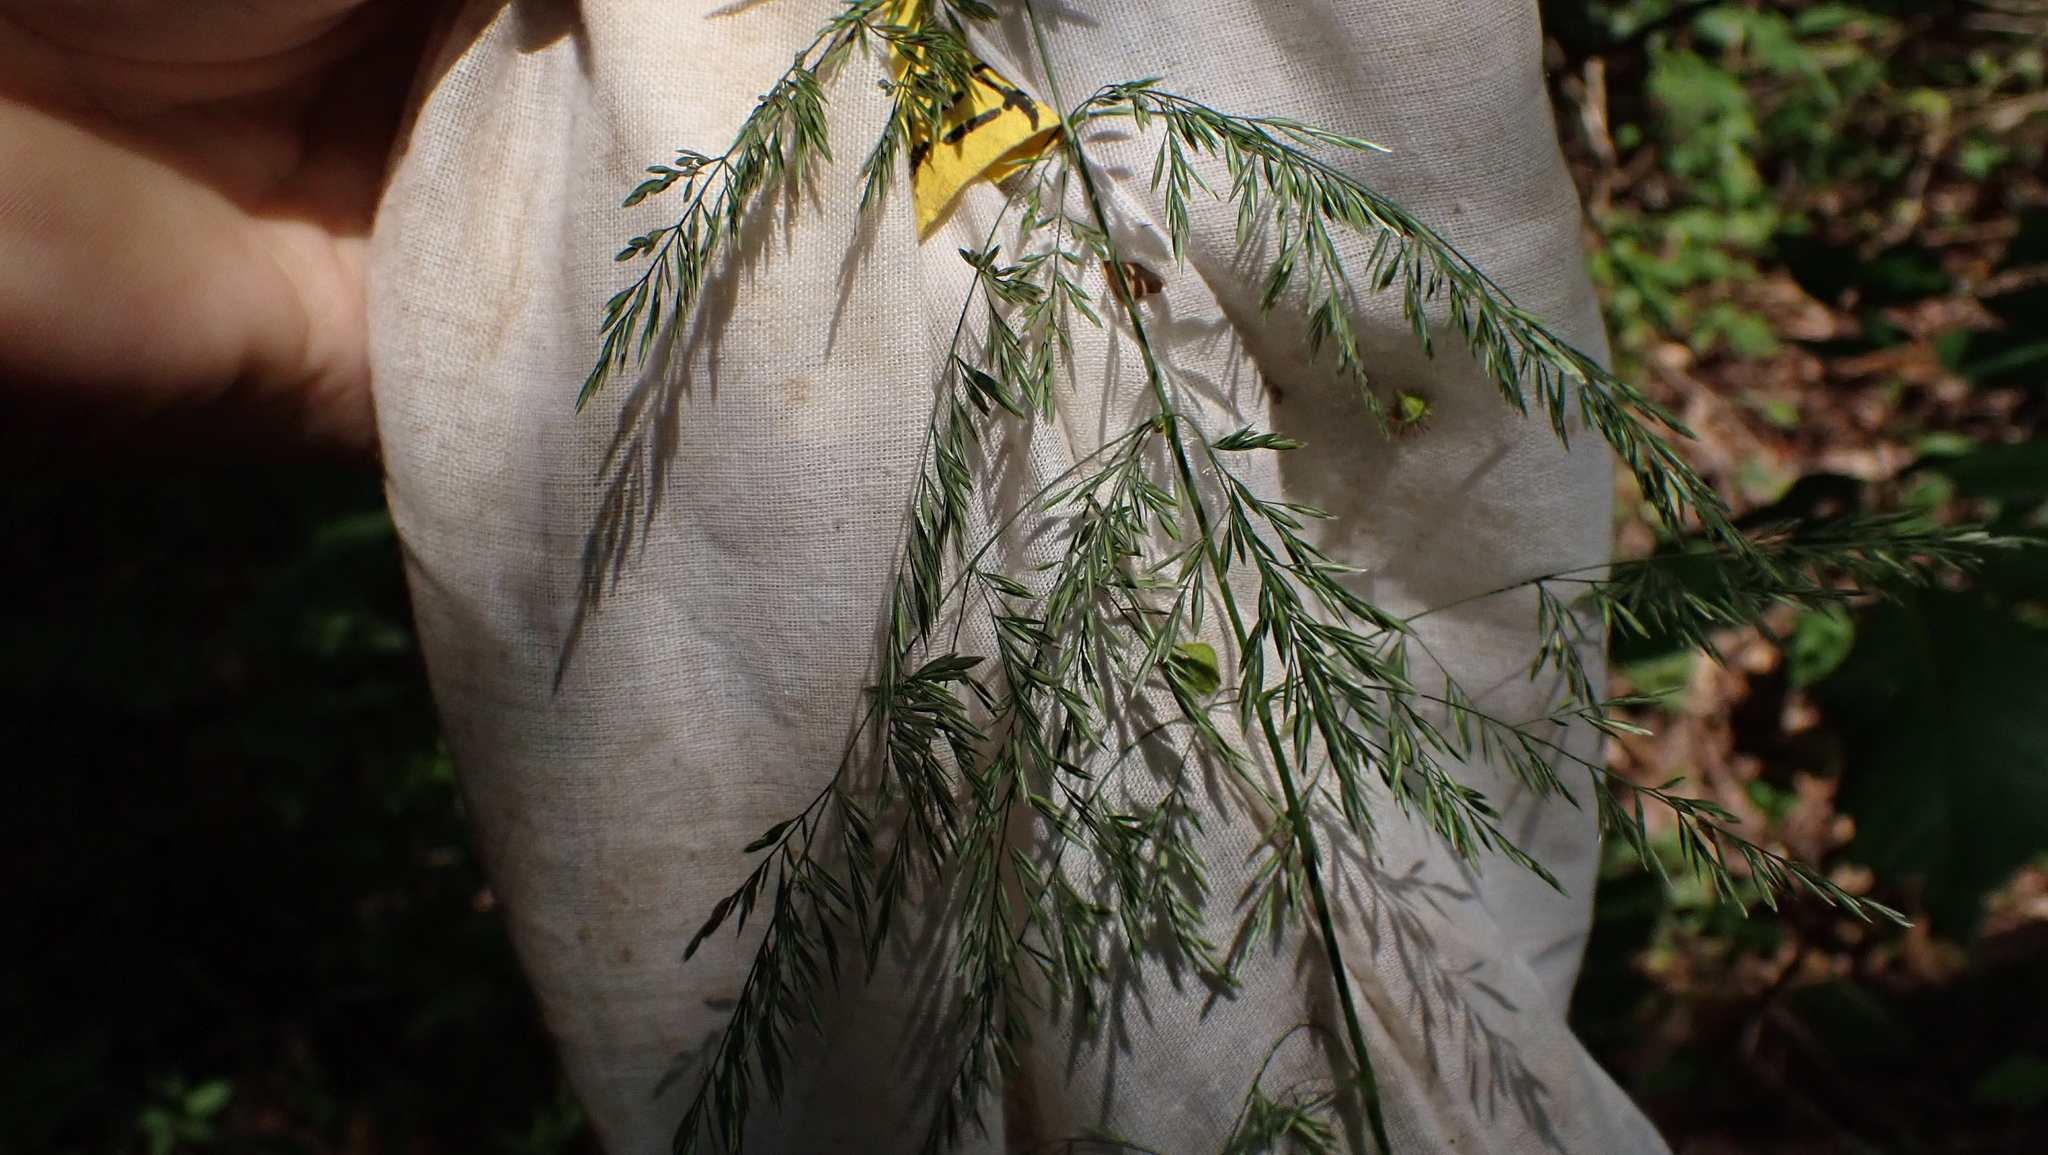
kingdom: Plantae
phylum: Tracheophyta
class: Liliopsida
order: Poales
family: Poaceae
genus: Cinna
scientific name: Cinna arundinacea
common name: Stout woodreed
